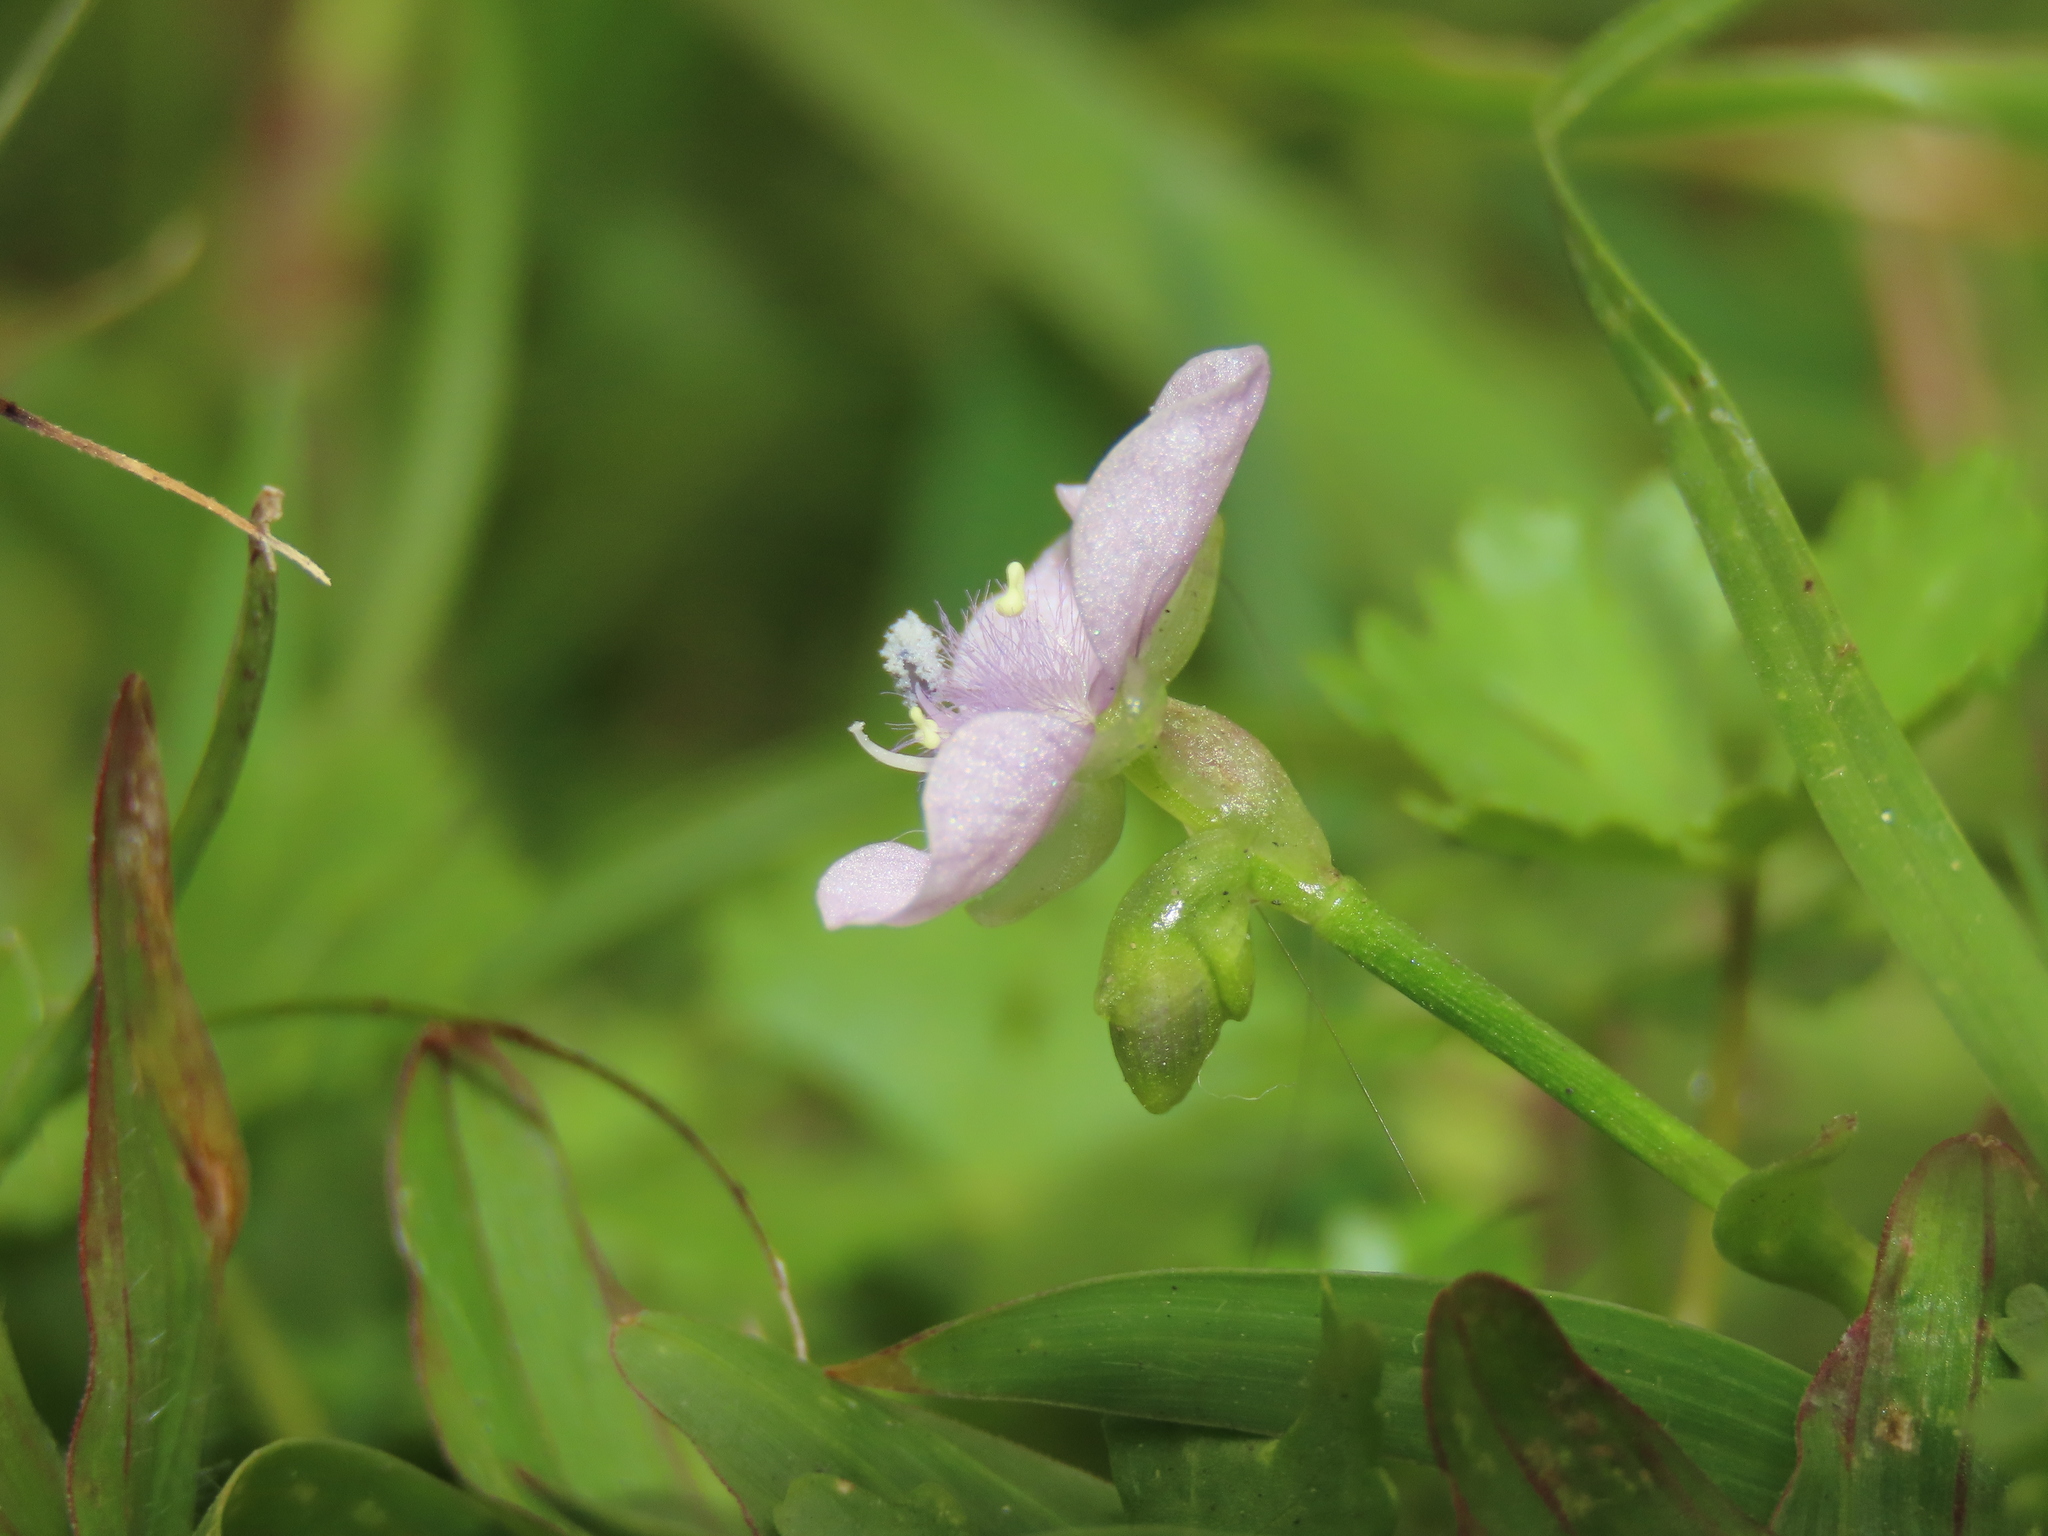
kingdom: Plantae
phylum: Tracheophyta
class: Liliopsida
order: Commelinales
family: Commelinaceae
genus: Murdannia
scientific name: Murdannia loriformis
